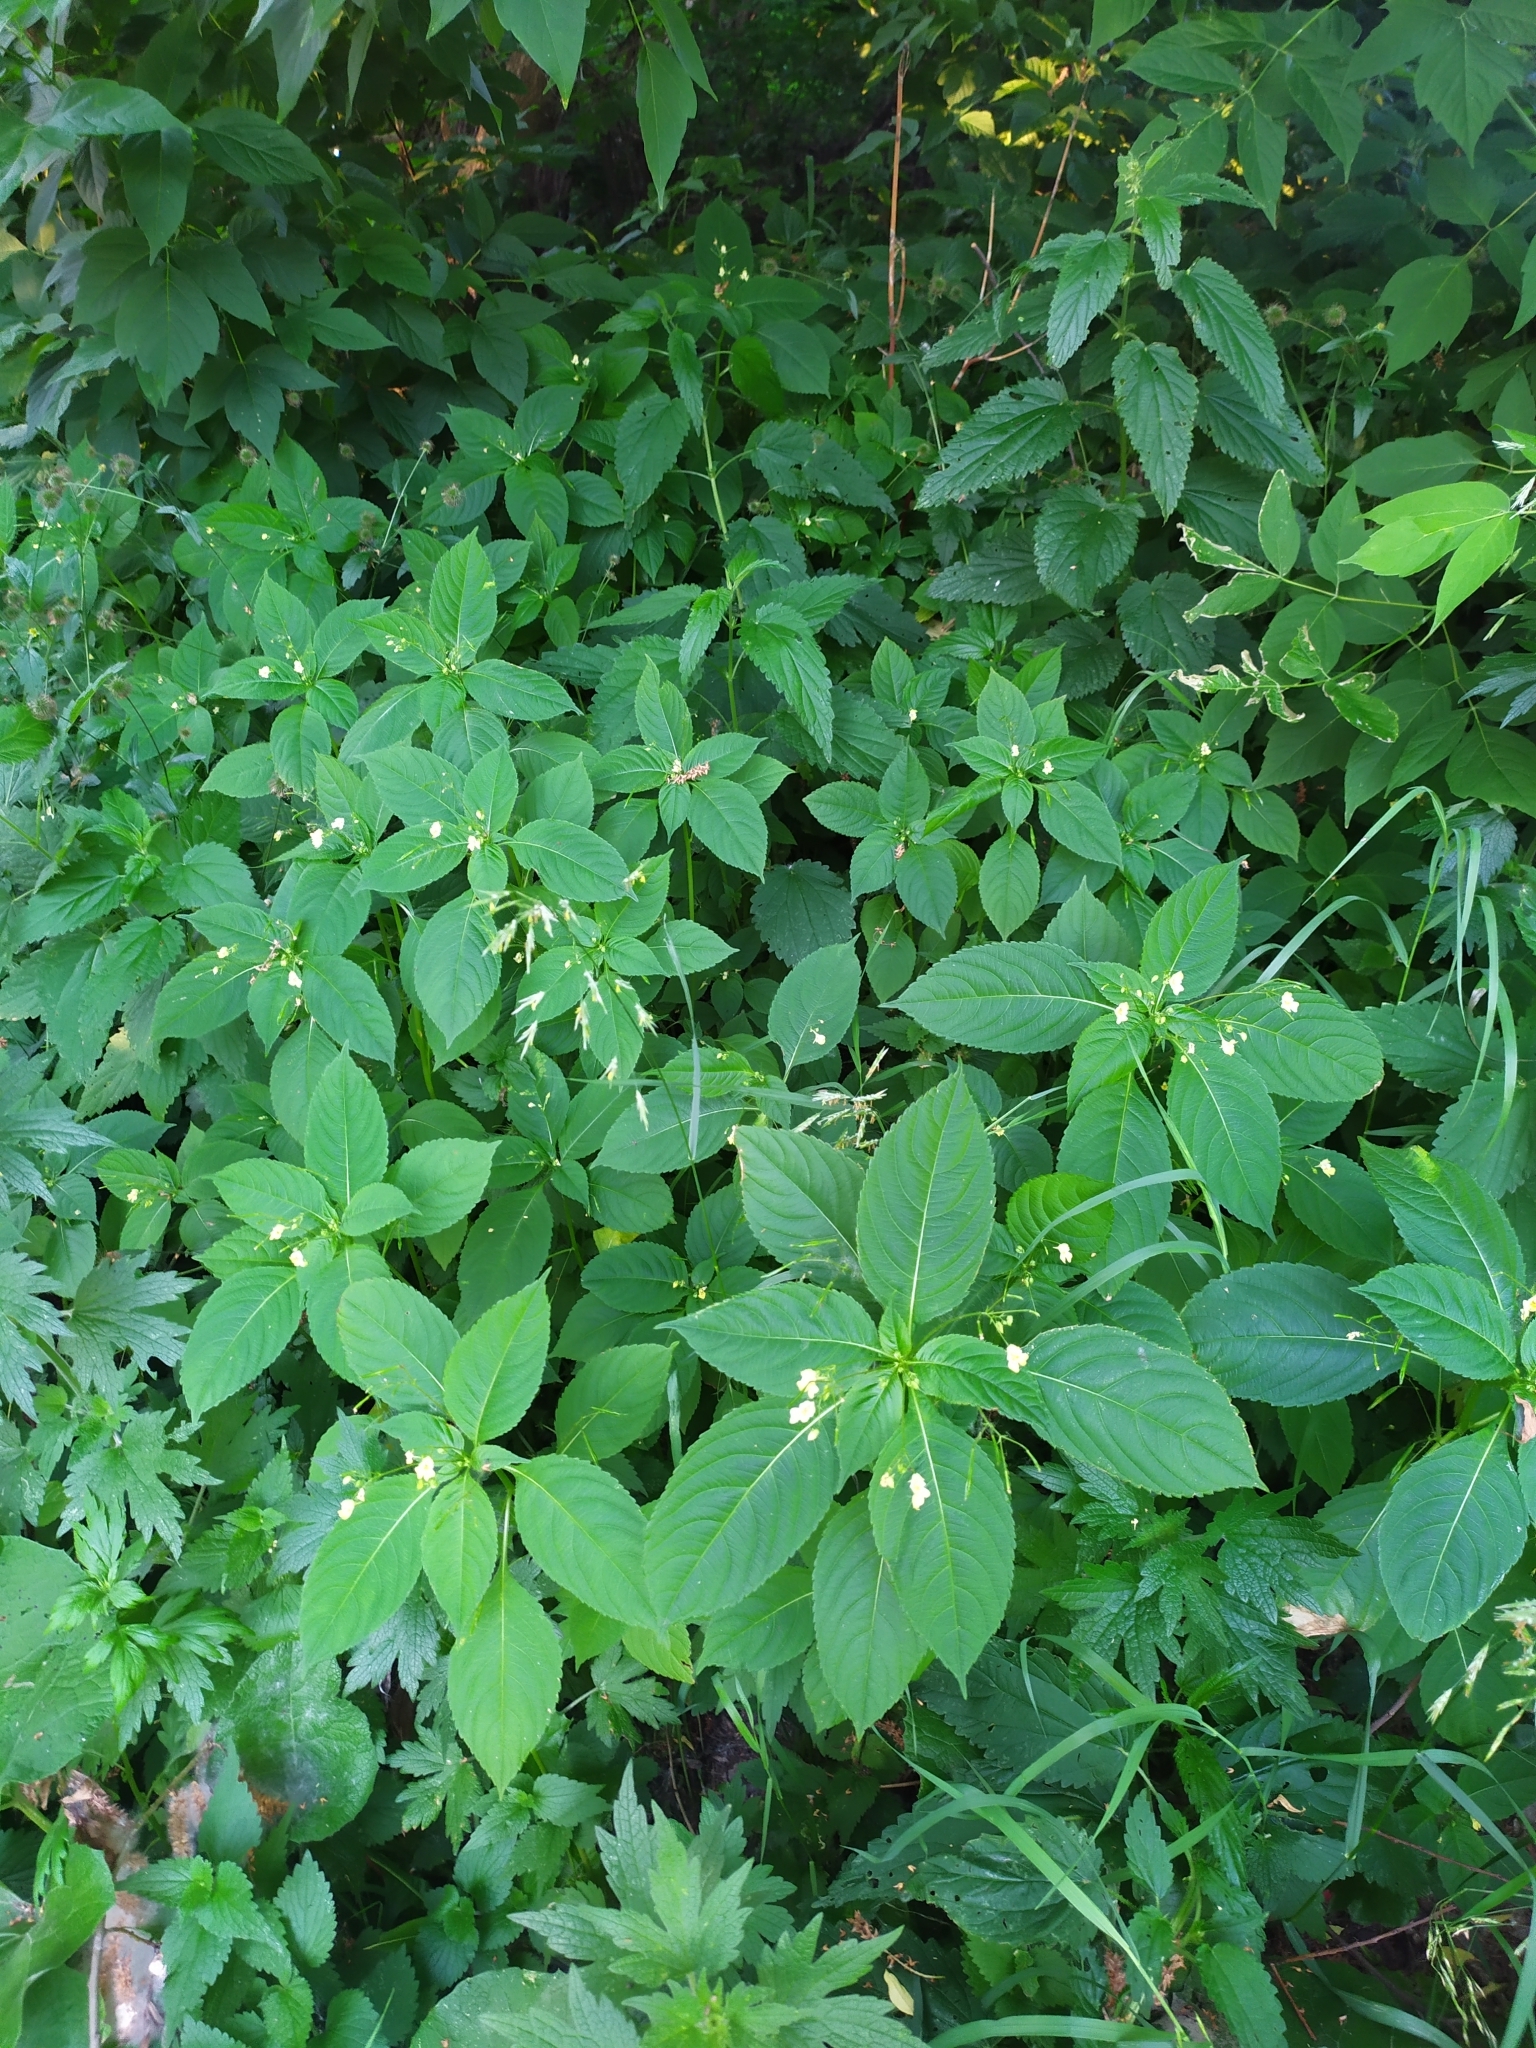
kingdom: Plantae
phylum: Tracheophyta
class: Magnoliopsida
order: Ericales
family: Balsaminaceae
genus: Impatiens
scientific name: Impatiens parviflora
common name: Small balsam
